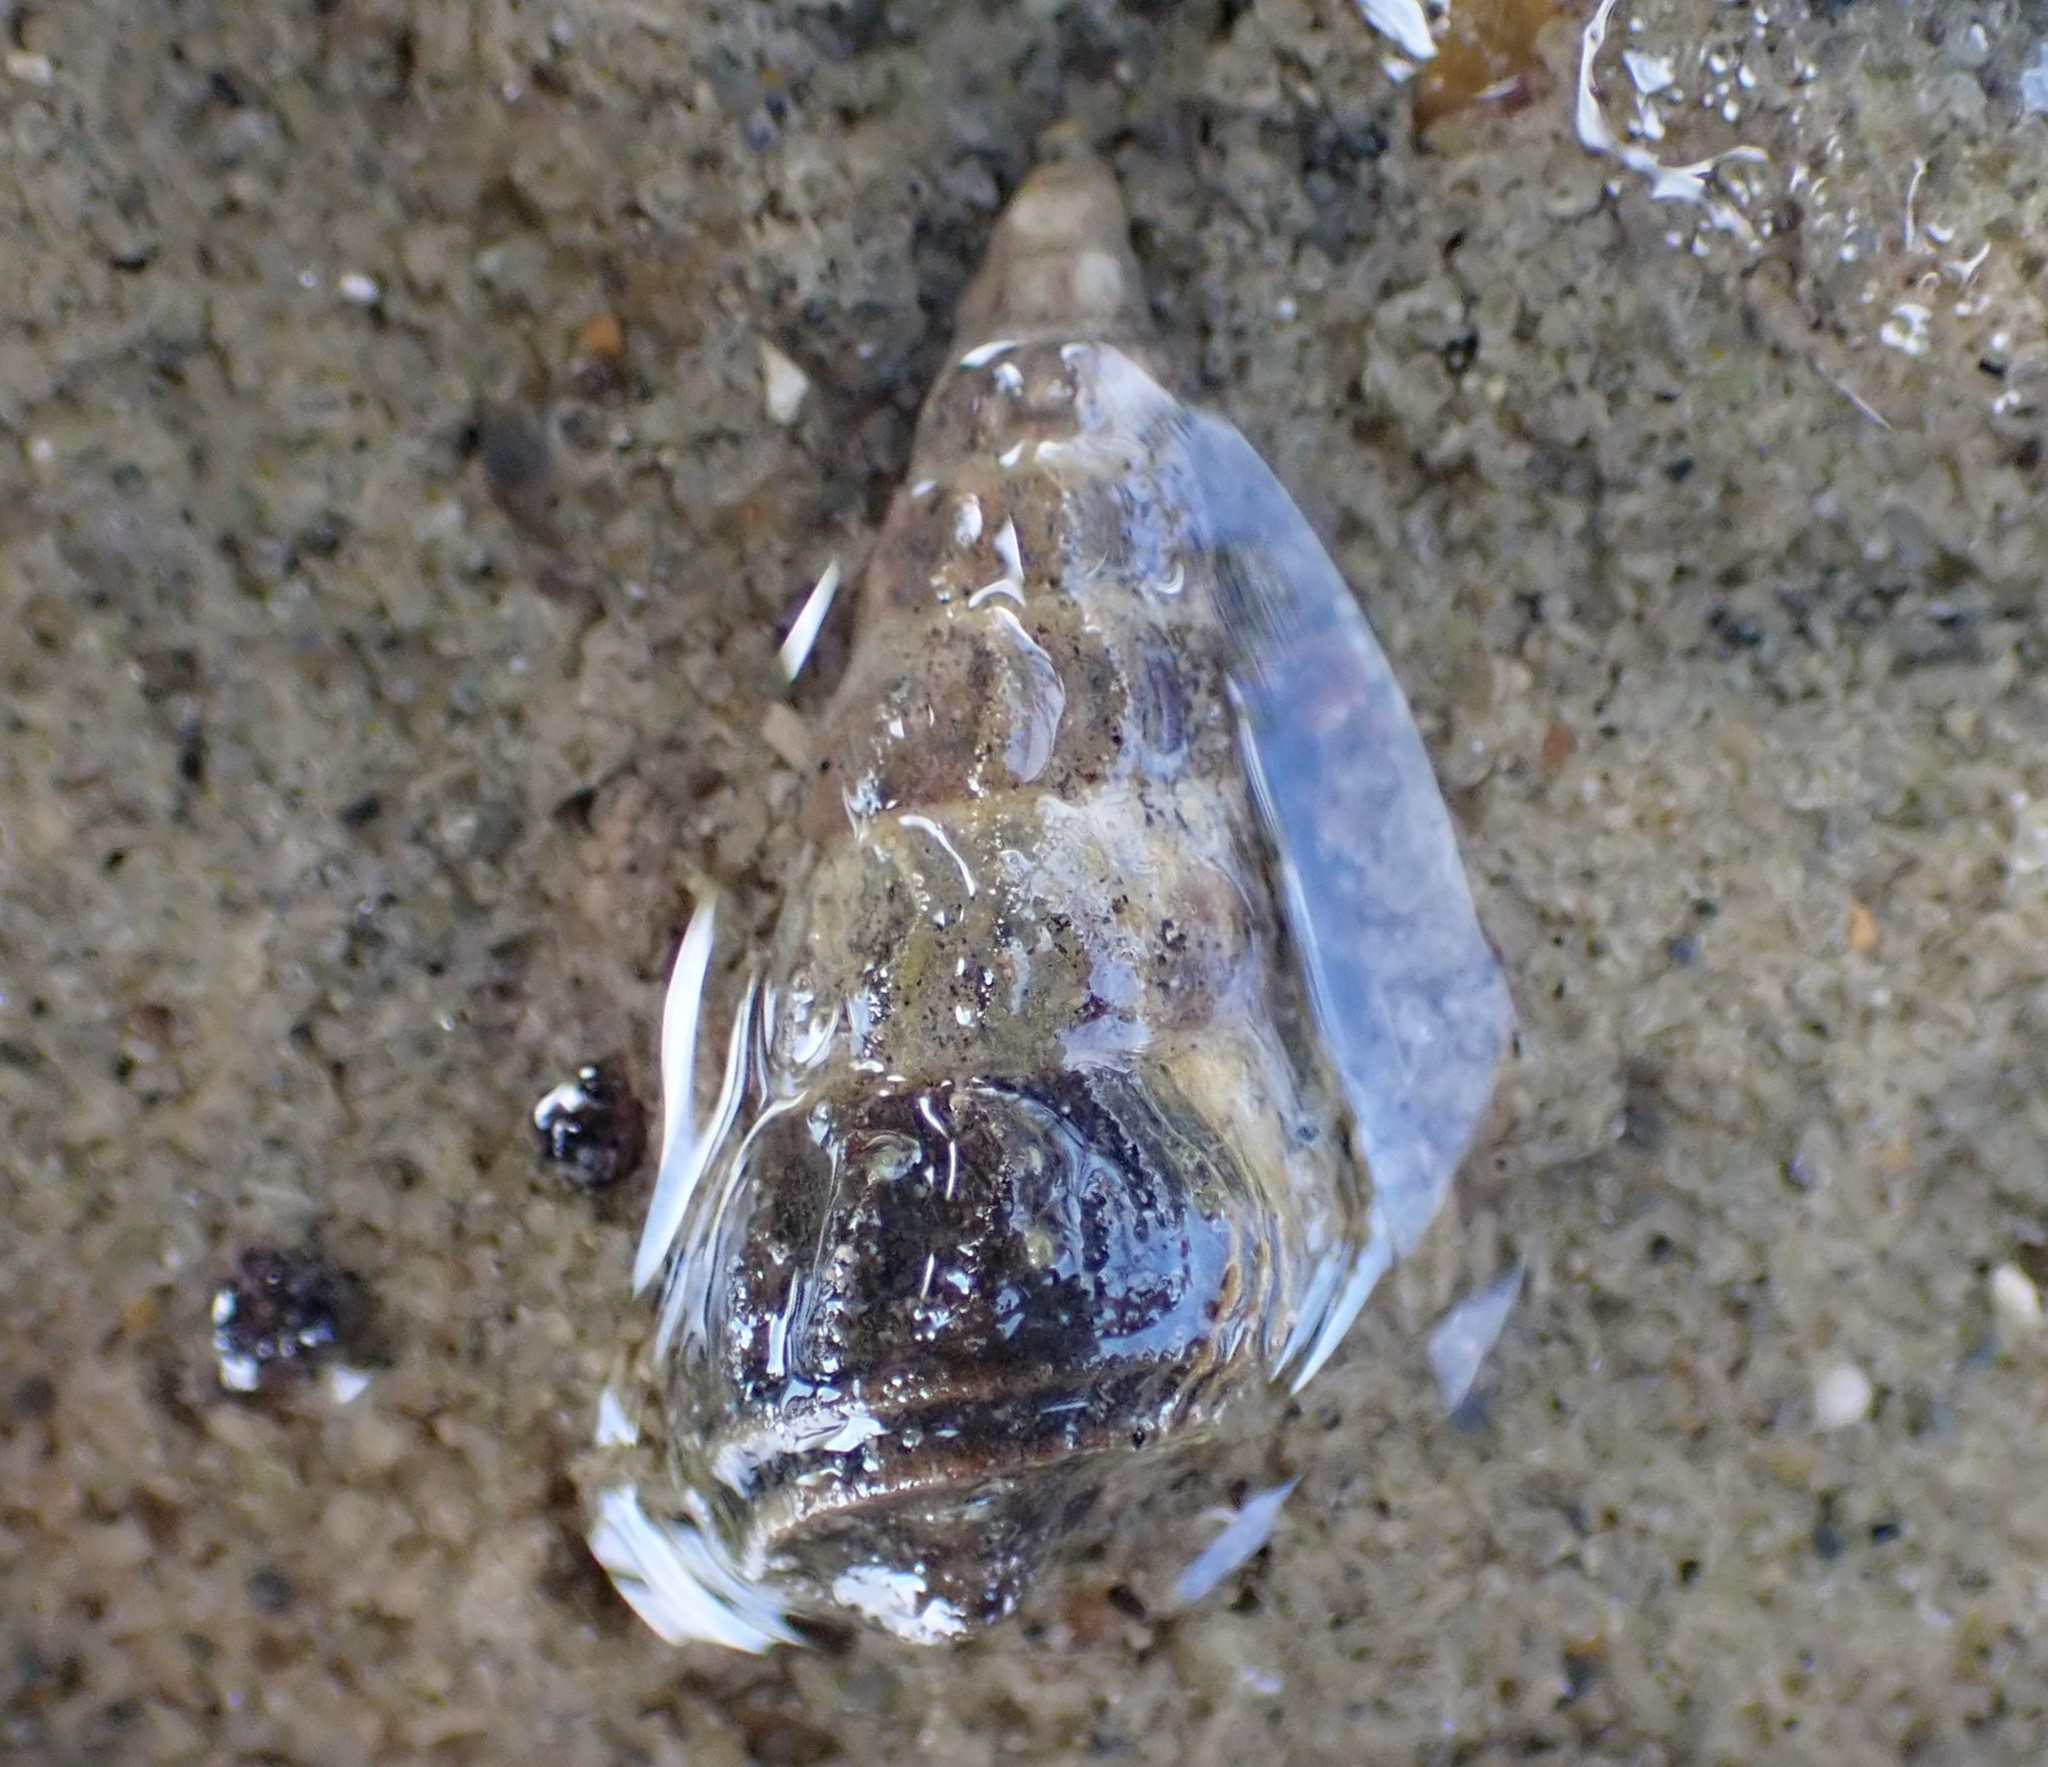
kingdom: Animalia
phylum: Mollusca
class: Gastropoda
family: Batillariidae
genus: Zeacumantus
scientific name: Zeacumantus lutulentus
